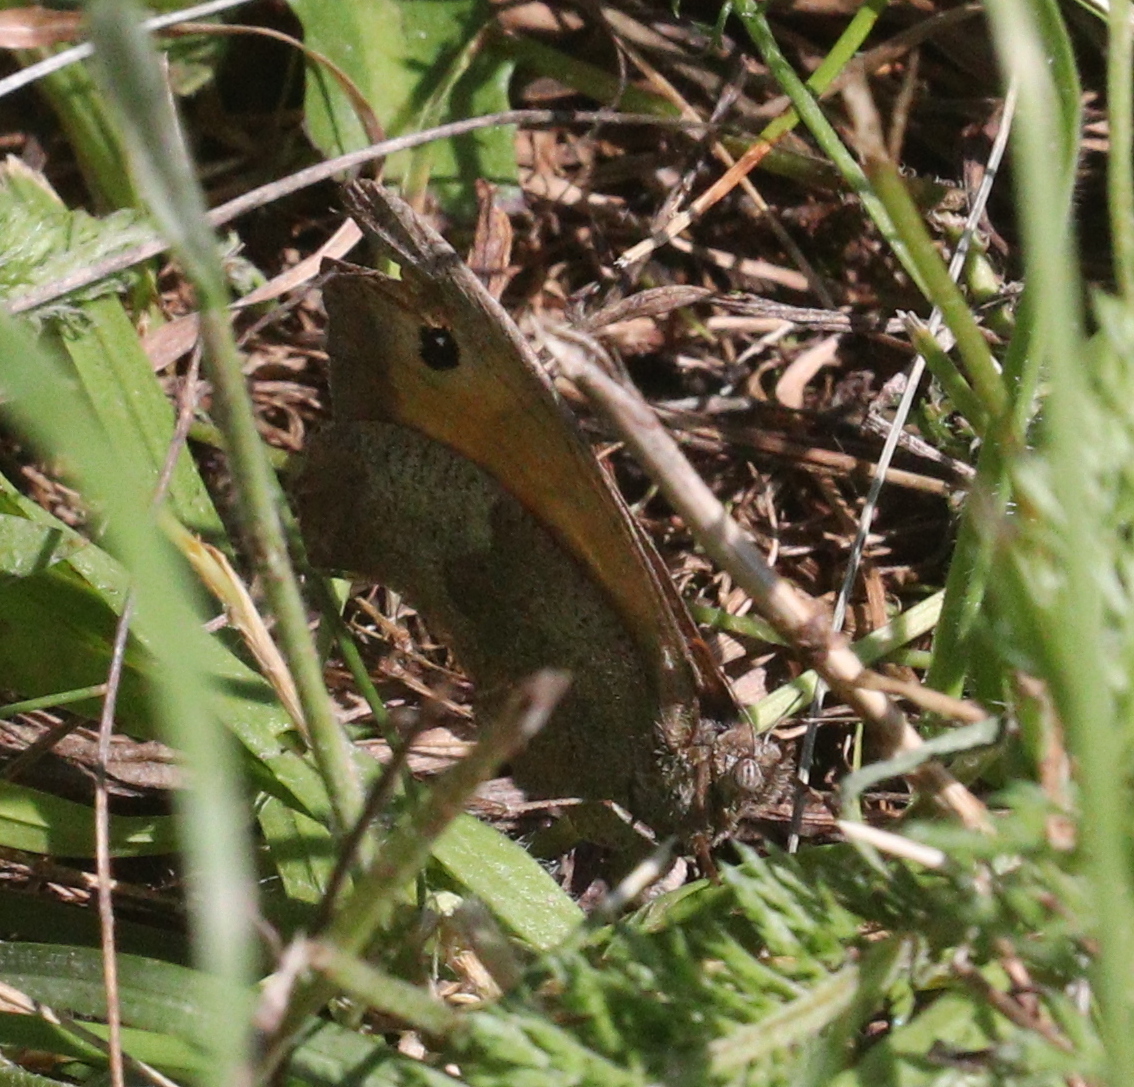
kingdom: Animalia
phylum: Arthropoda
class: Insecta
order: Lepidoptera
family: Nymphalidae
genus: Maniola
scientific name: Maniola jurtina
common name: Meadow brown
